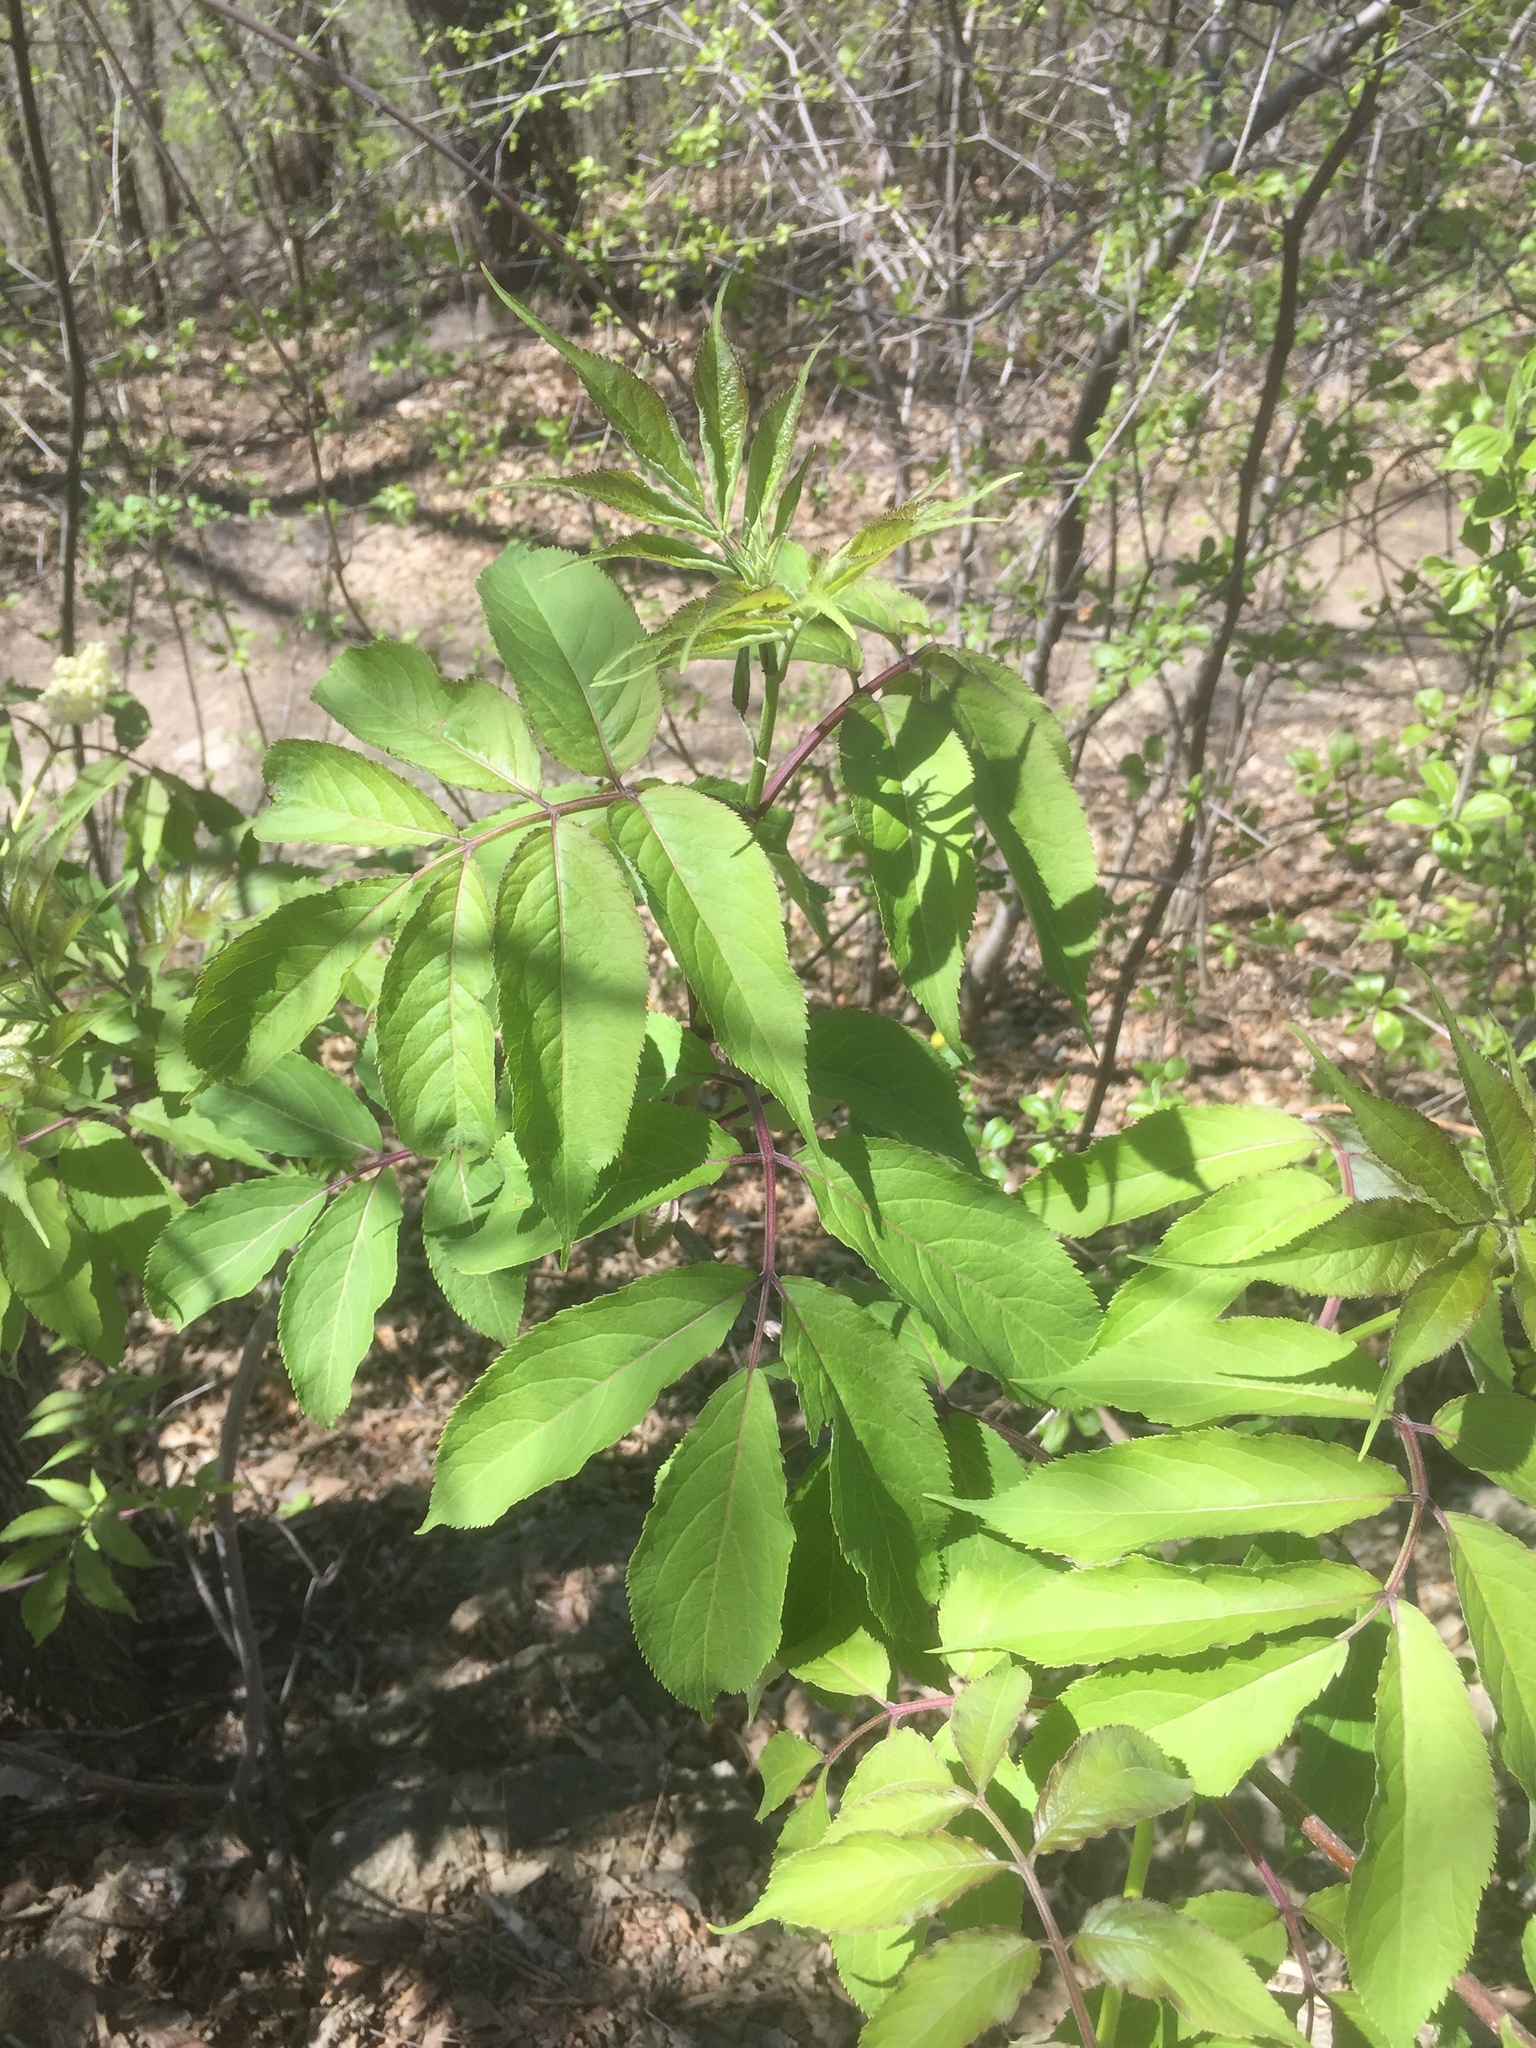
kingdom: Plantae
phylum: Tracheophyta
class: Magnoliopsida
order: Dipsacales
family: Viburnaceae
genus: Sambucus
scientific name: Sambucus racemosa
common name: Red-berried elder
